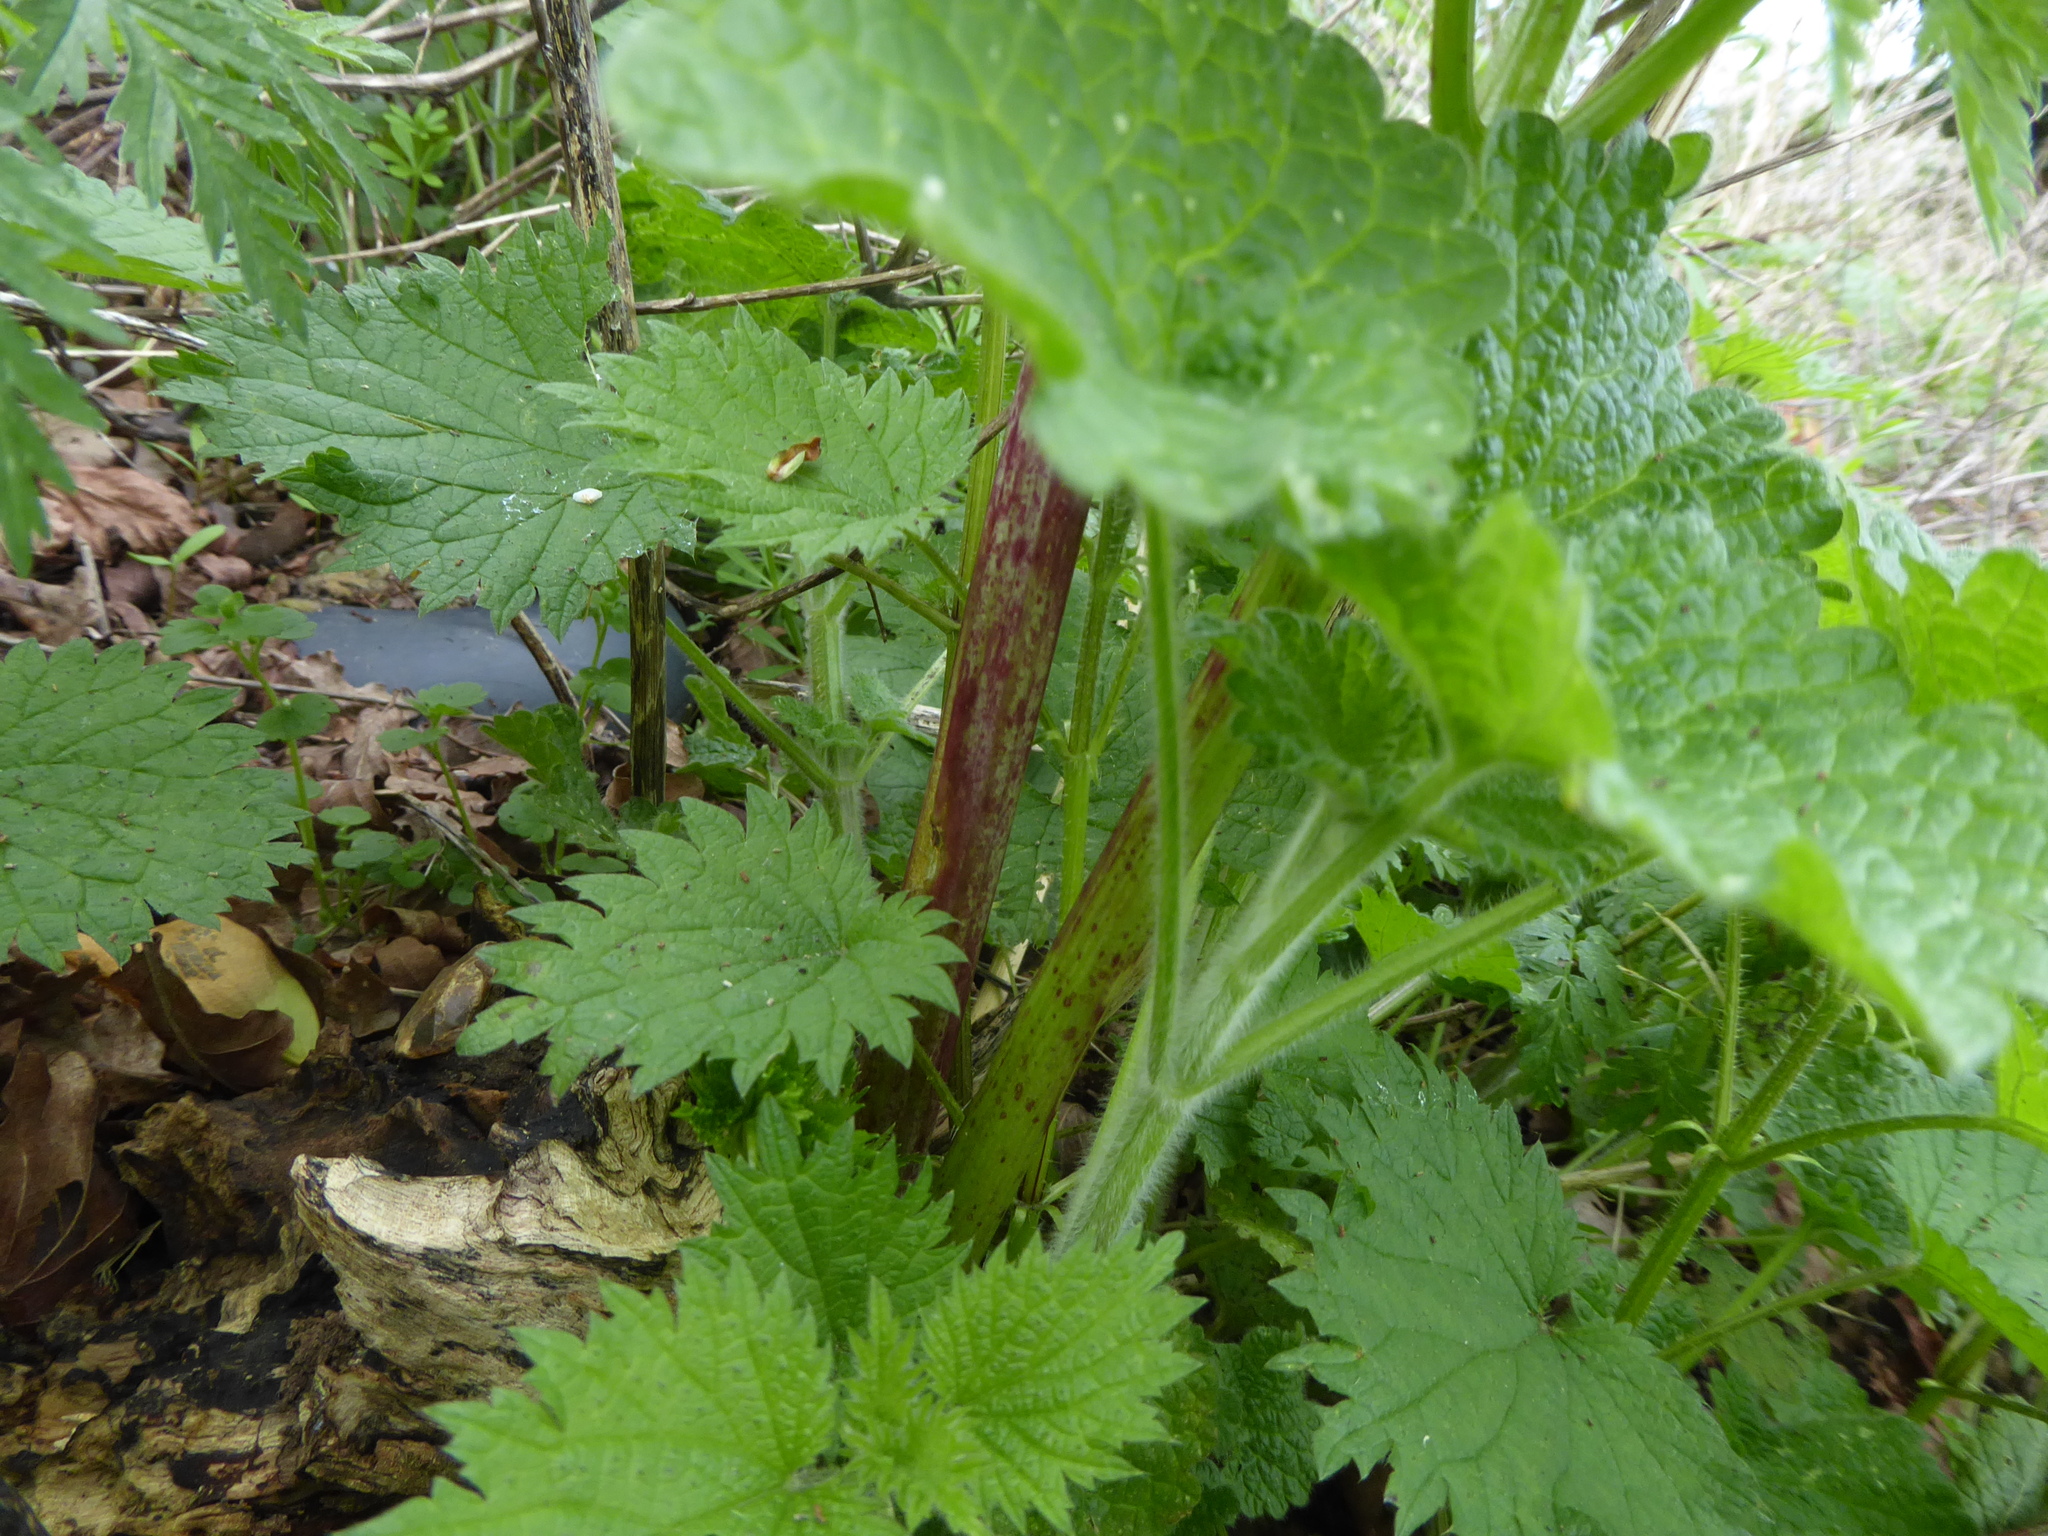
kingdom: Plantae
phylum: Tracheophyta
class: Magnoliopsida
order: Apiales
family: Apiaceae
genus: Conium
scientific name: Conium maculatum
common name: Hemlock
